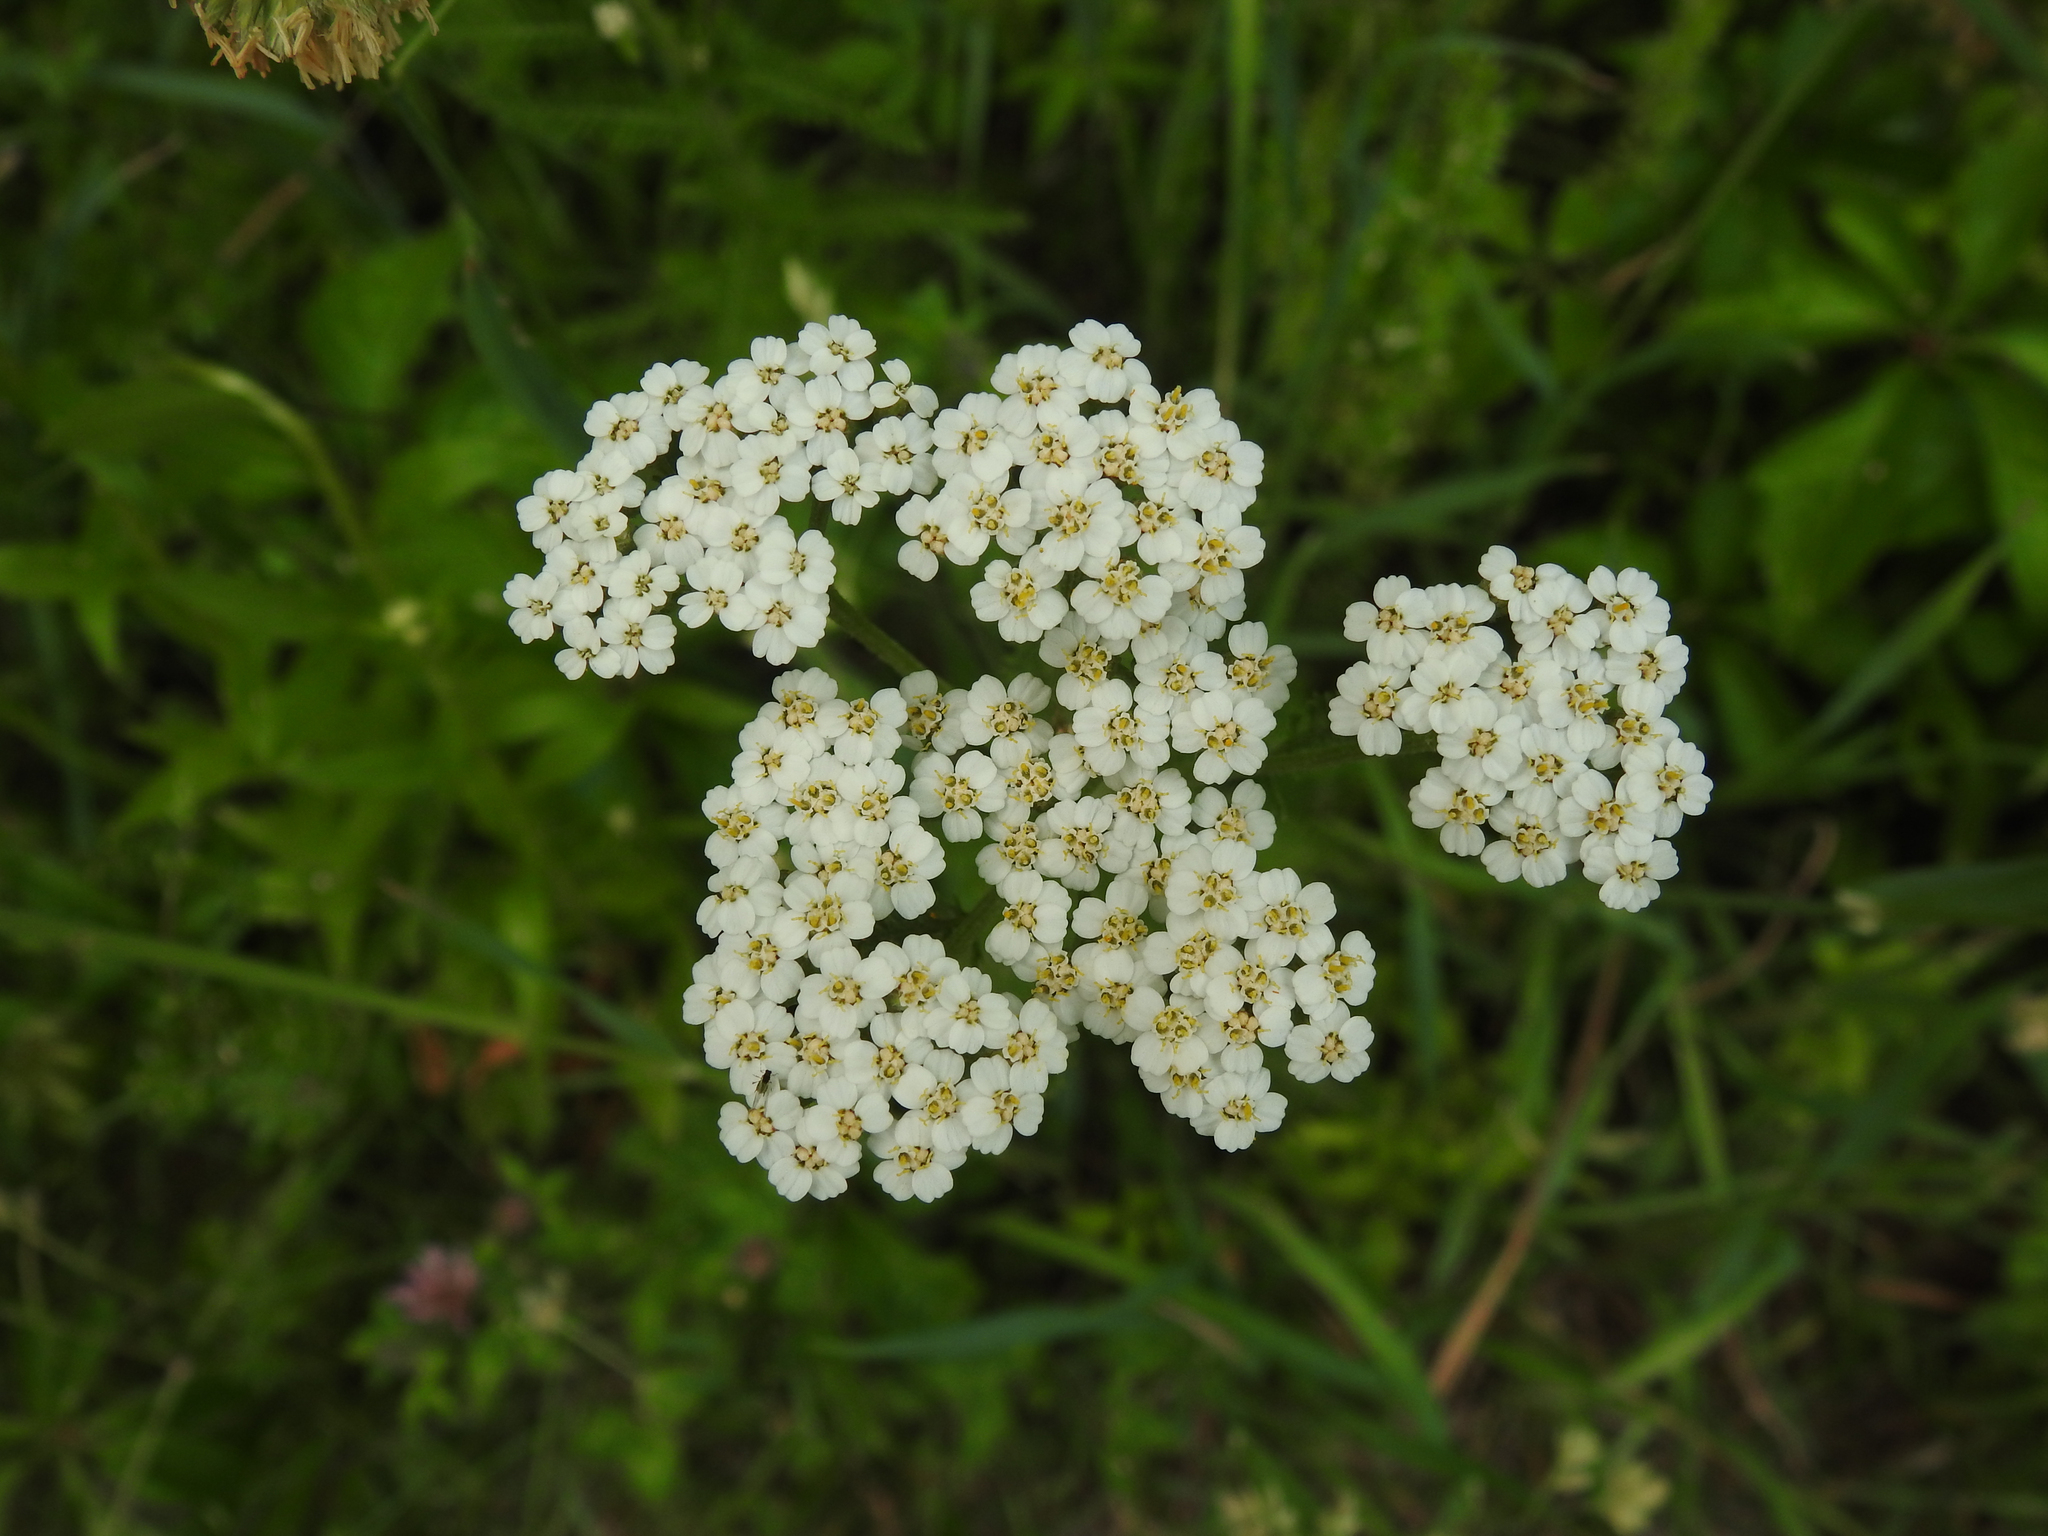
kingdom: Plantae
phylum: Tracheophyta
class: Magnoliopsida
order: Asterales
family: Asteraceae
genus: Achillea
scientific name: Achillea millefolium
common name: Yarrow
